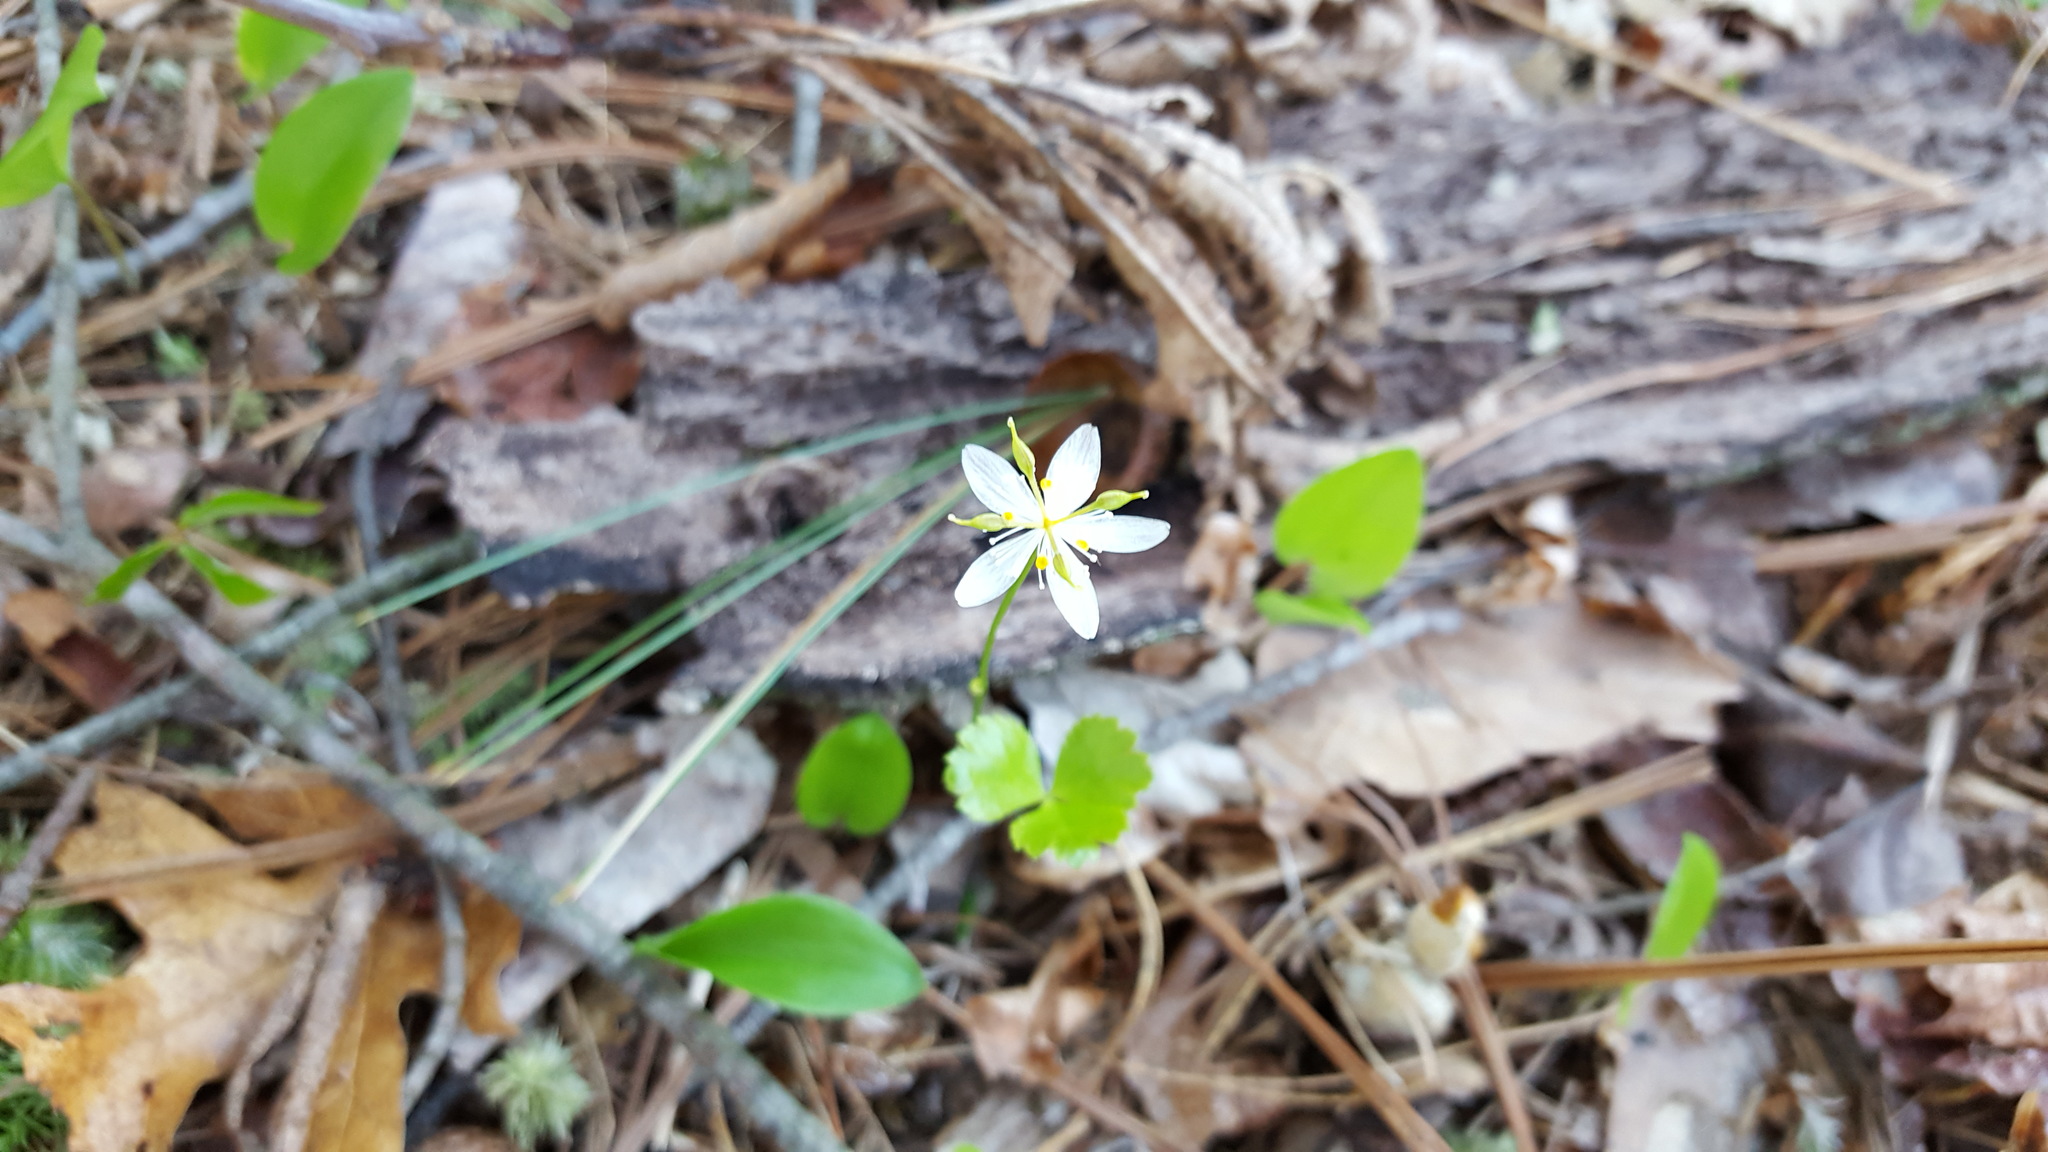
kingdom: Plantae
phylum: Tracheophyta
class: Magnoliopsida
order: Ranunculales
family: Ranunculaceae
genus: Coptis
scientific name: Coptis trifolia
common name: Canker-root
